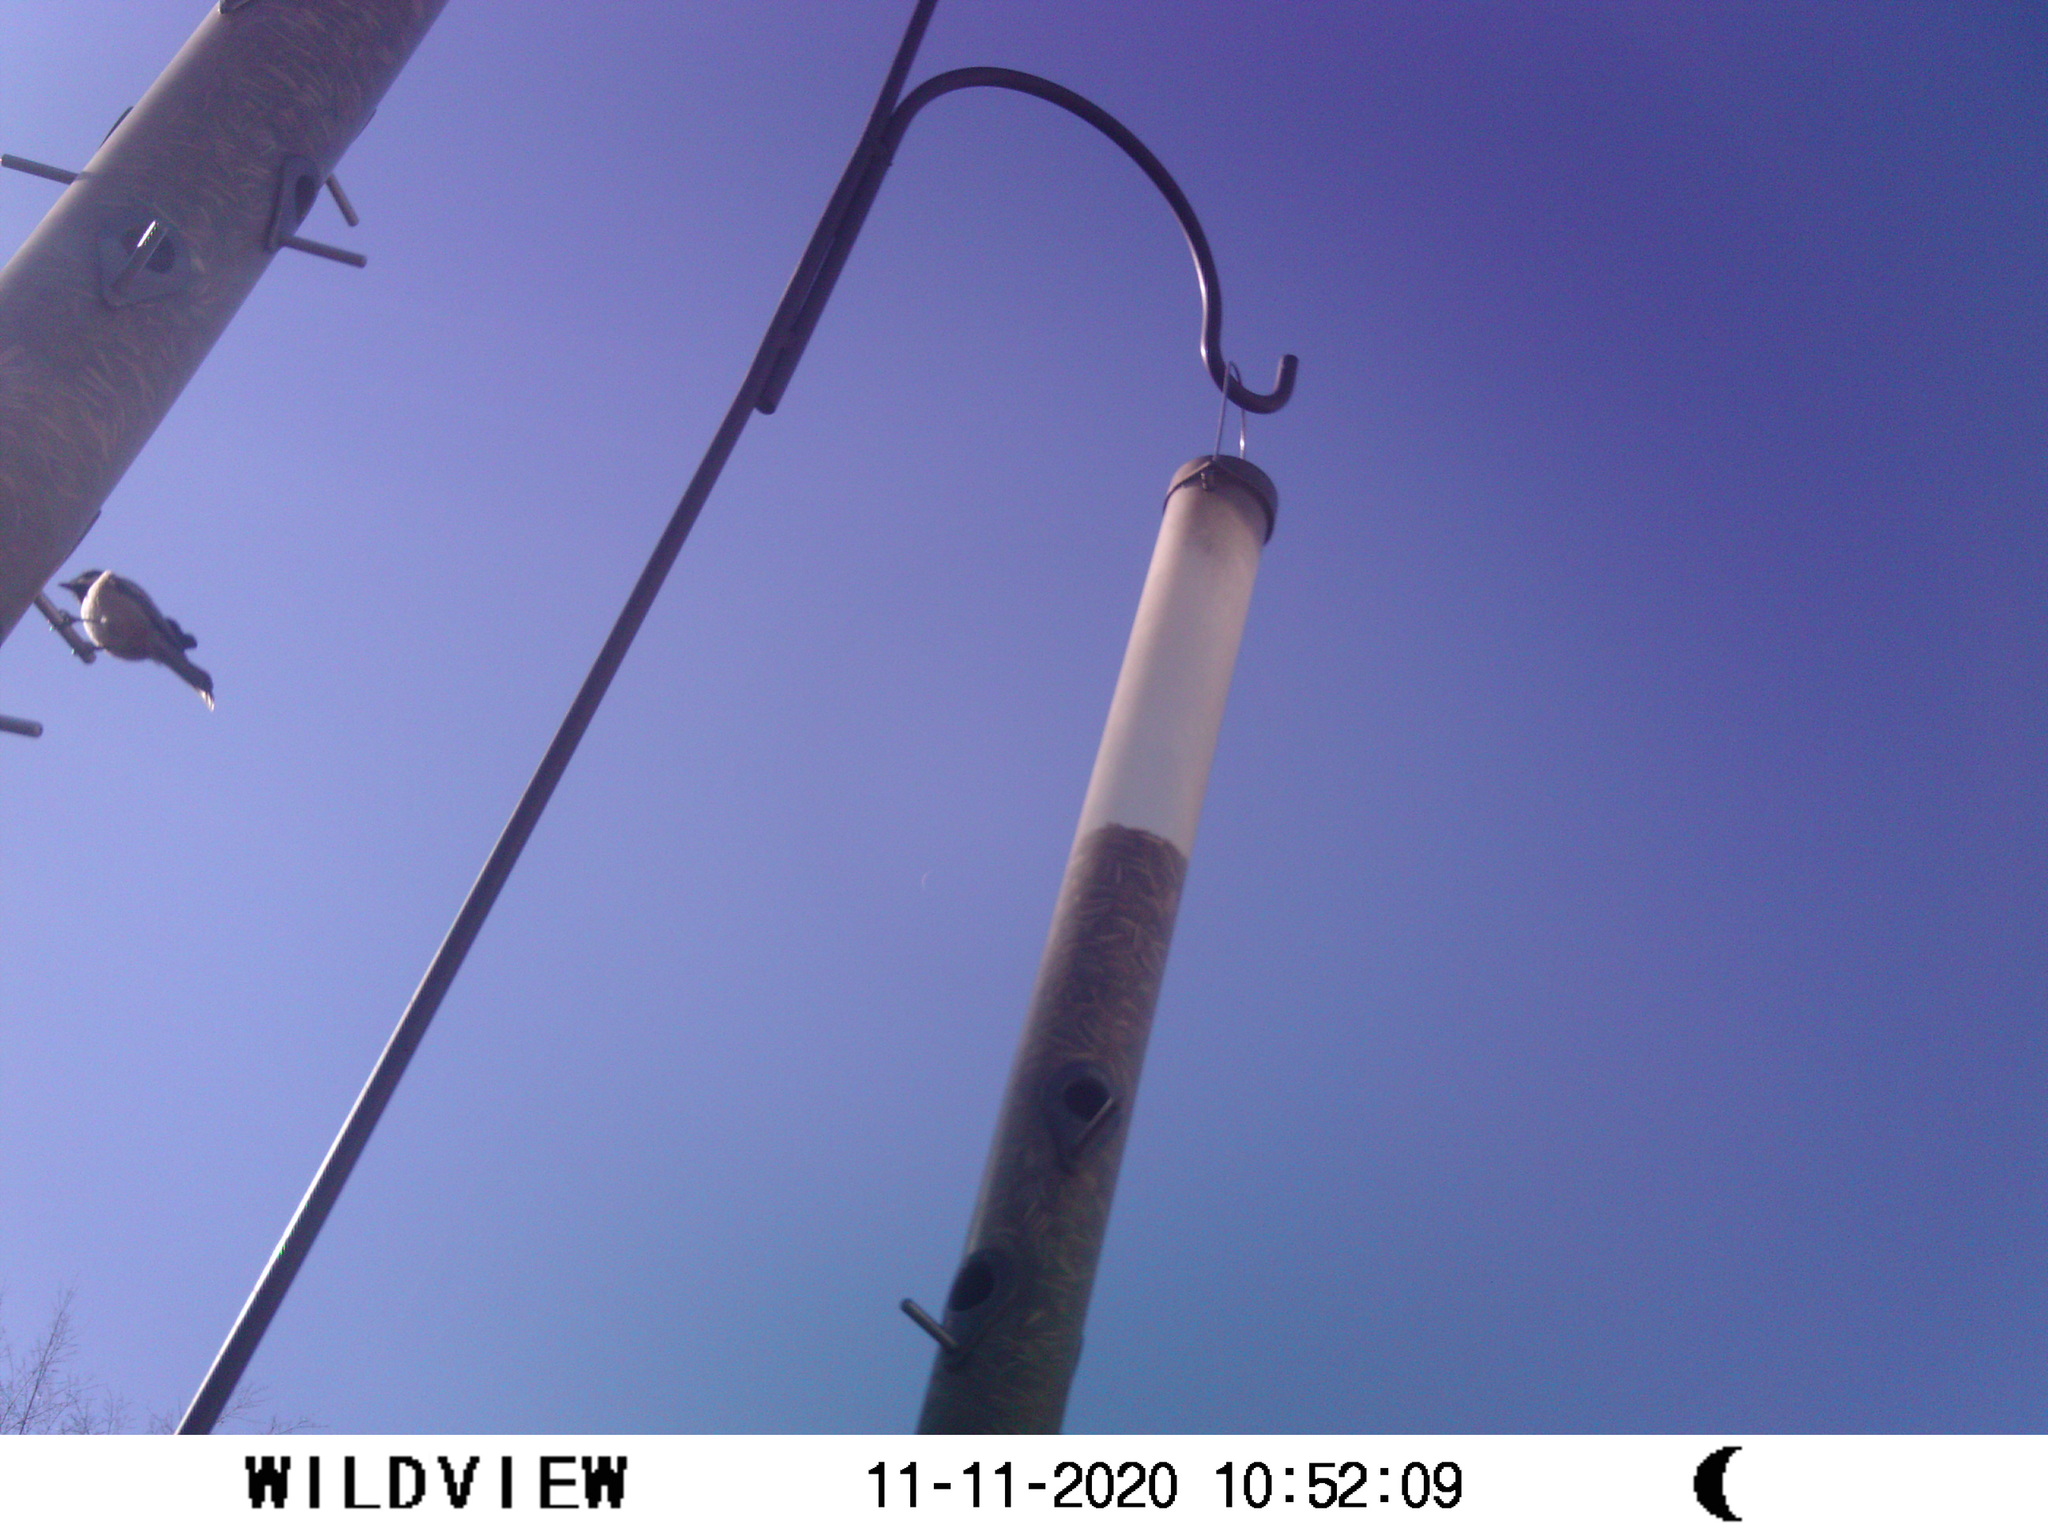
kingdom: Animalia
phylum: Chordata
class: Aves
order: Passeriformes
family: Paridae
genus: Poecile
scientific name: Poecile atricapillus
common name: Black-capped chickadee
